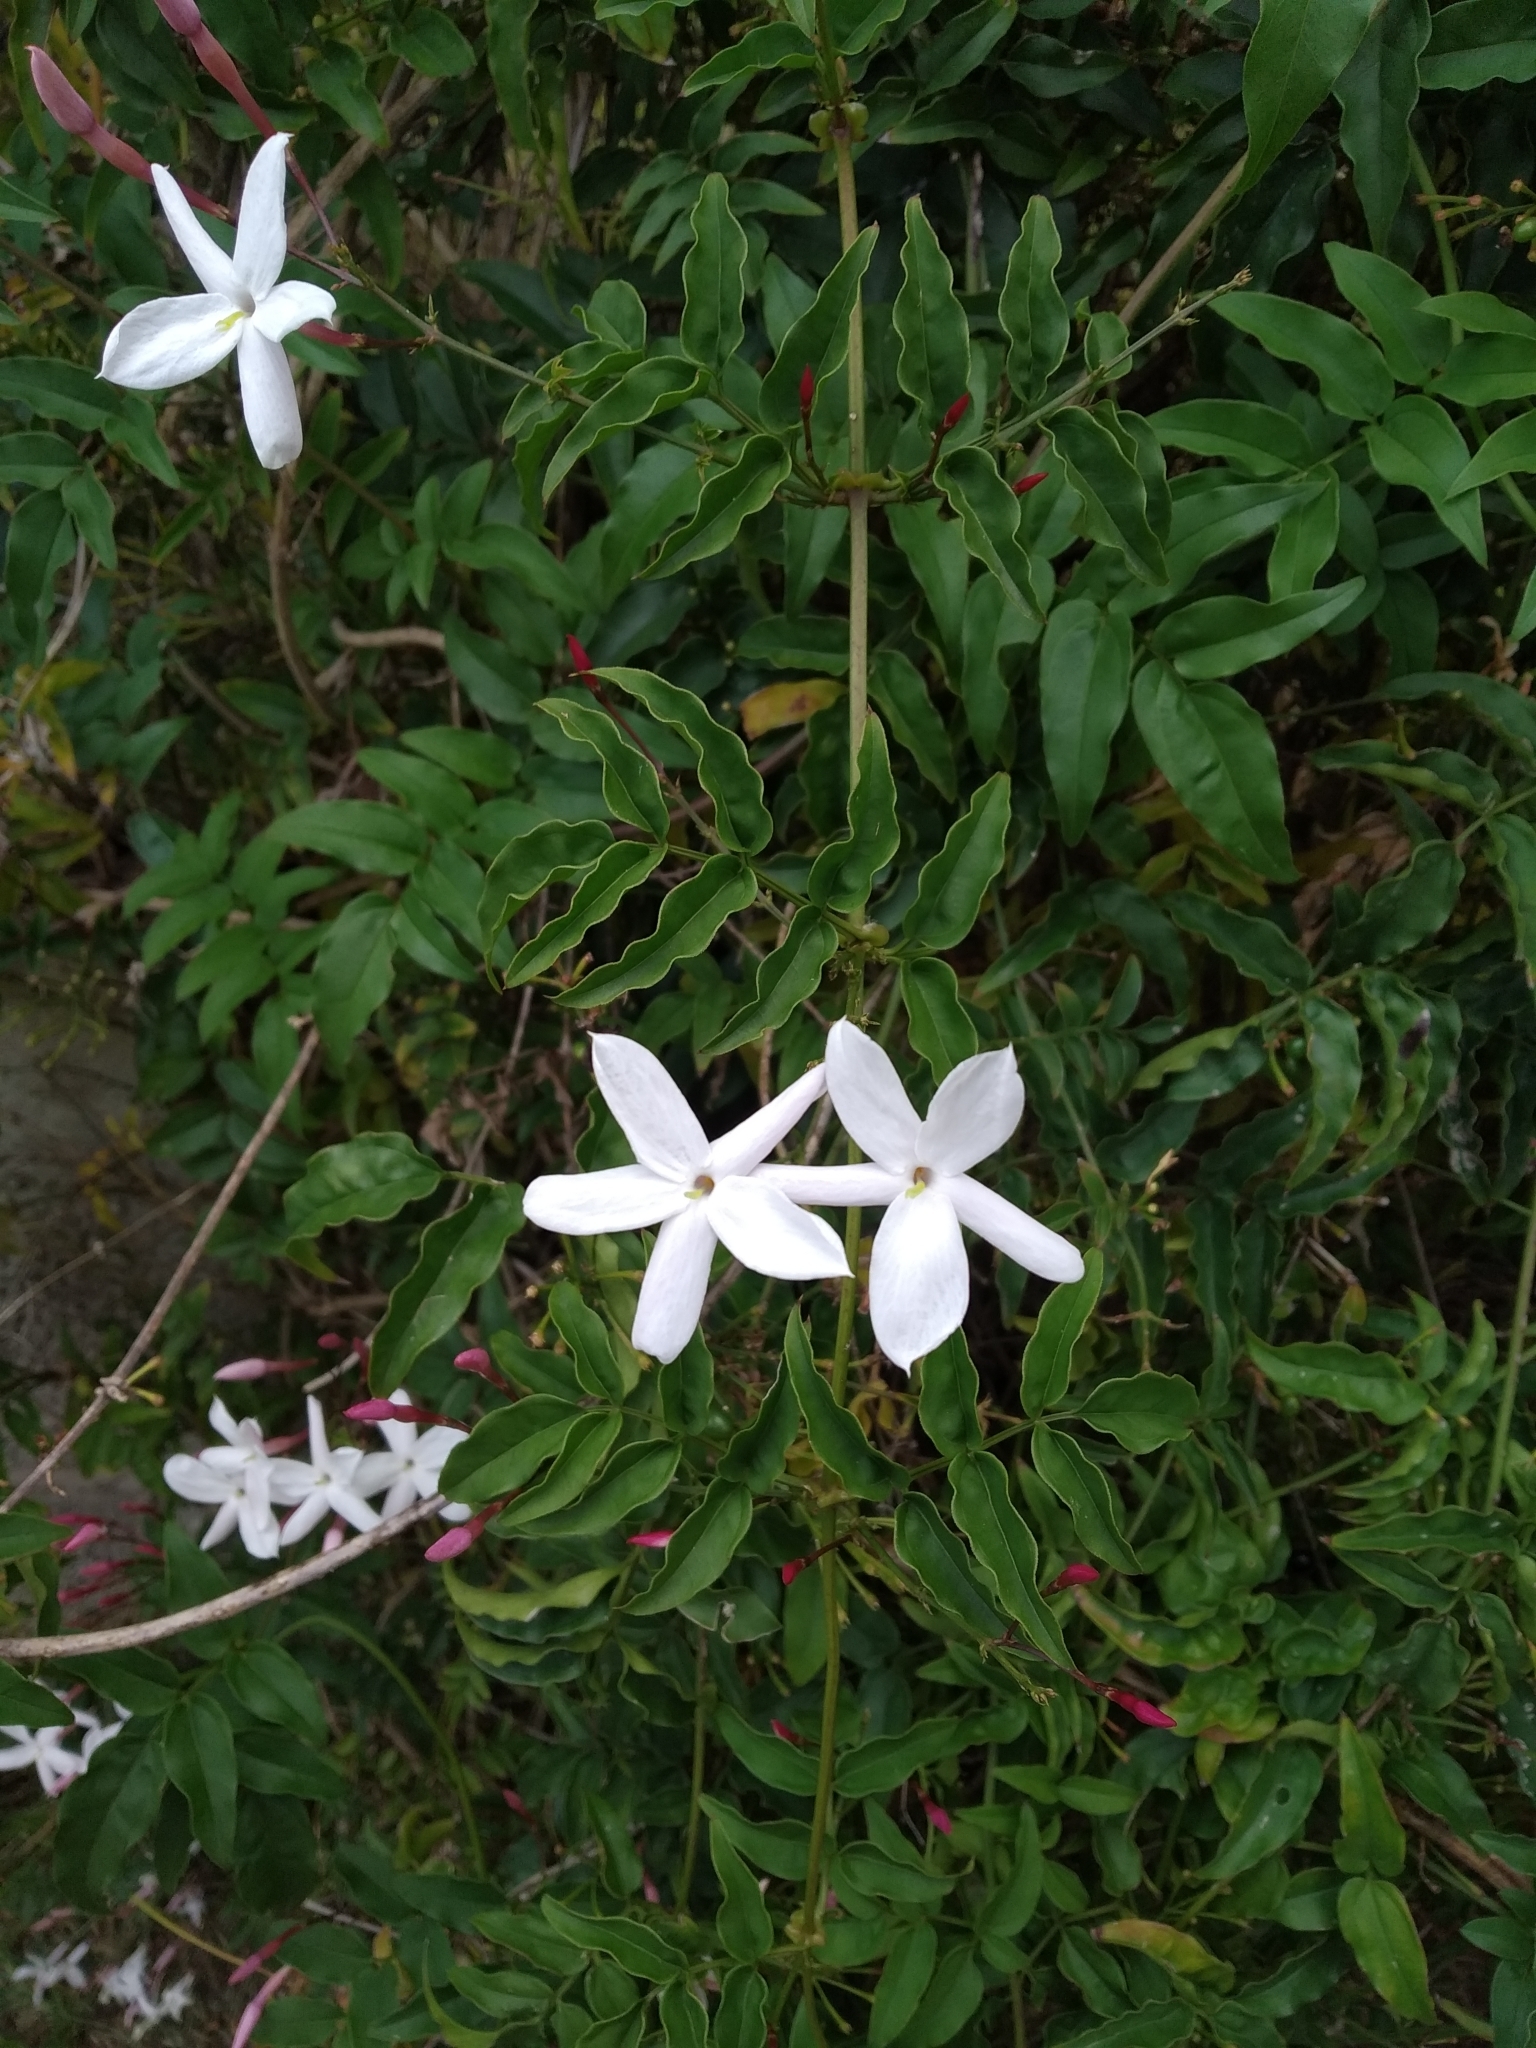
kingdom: Plantae
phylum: Tracheophyta
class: Magnoliopsida
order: Lamiales
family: Oleaceae
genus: Jasminum
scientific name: Jasminum polyanthum
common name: Pink jasmine
